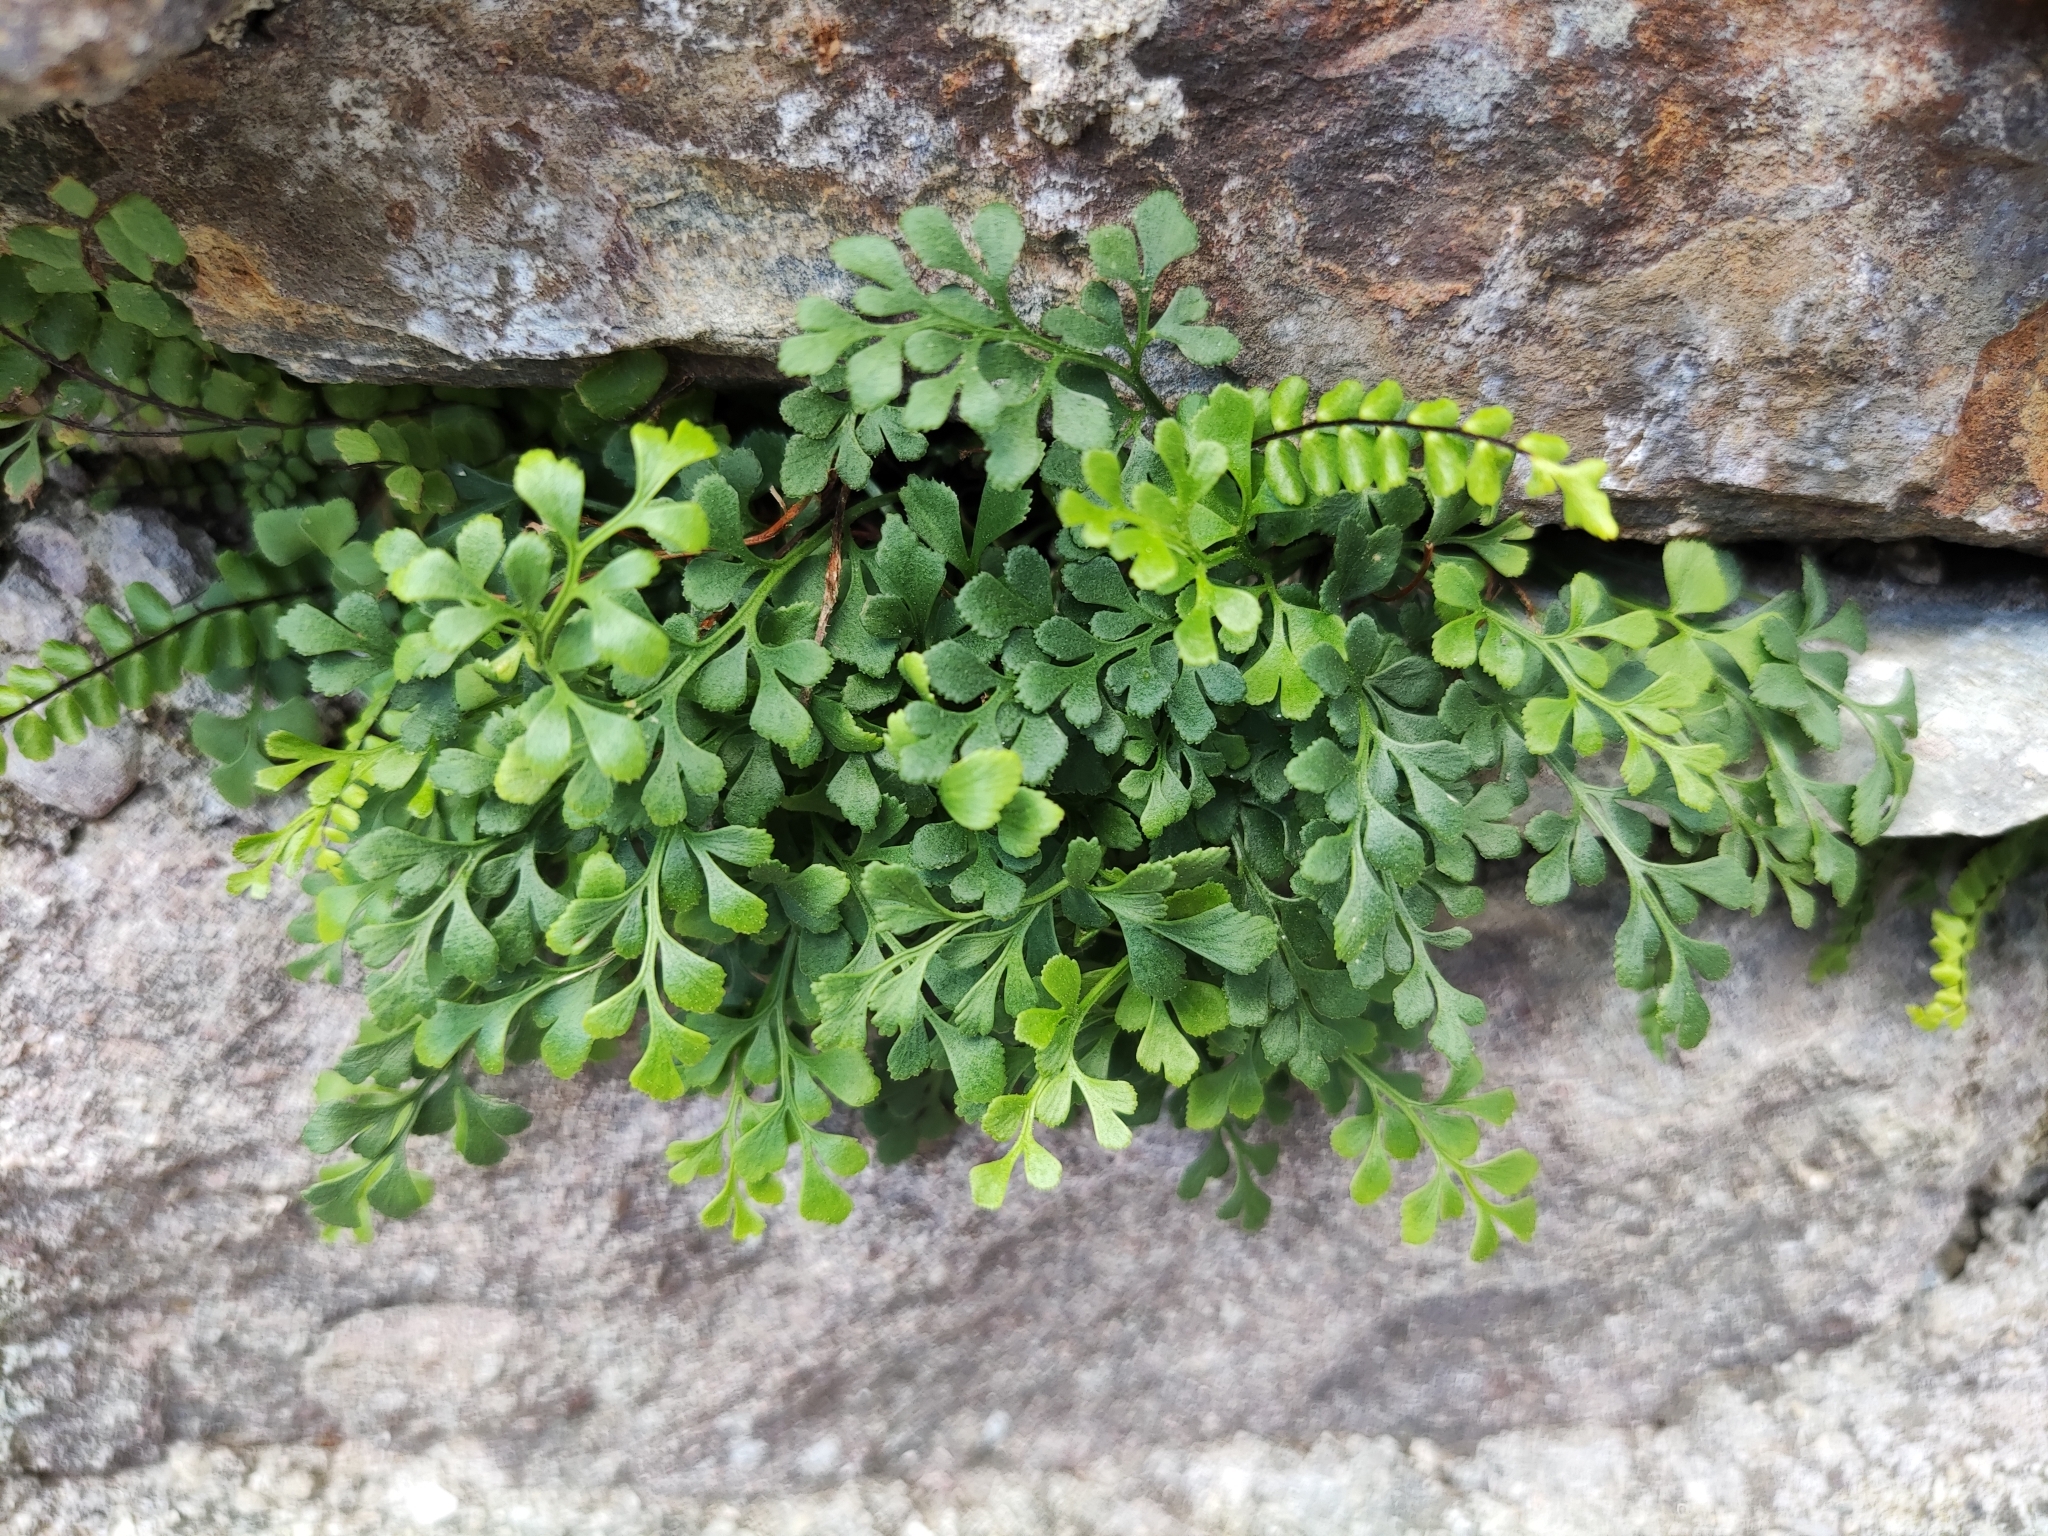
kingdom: Plantae
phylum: Tracheophyta
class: Polypodiopsida
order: Polypodiales
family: Aspleniaceae
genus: Asplenium
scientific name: Asplenium ruta-muraria
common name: Wall-rue
